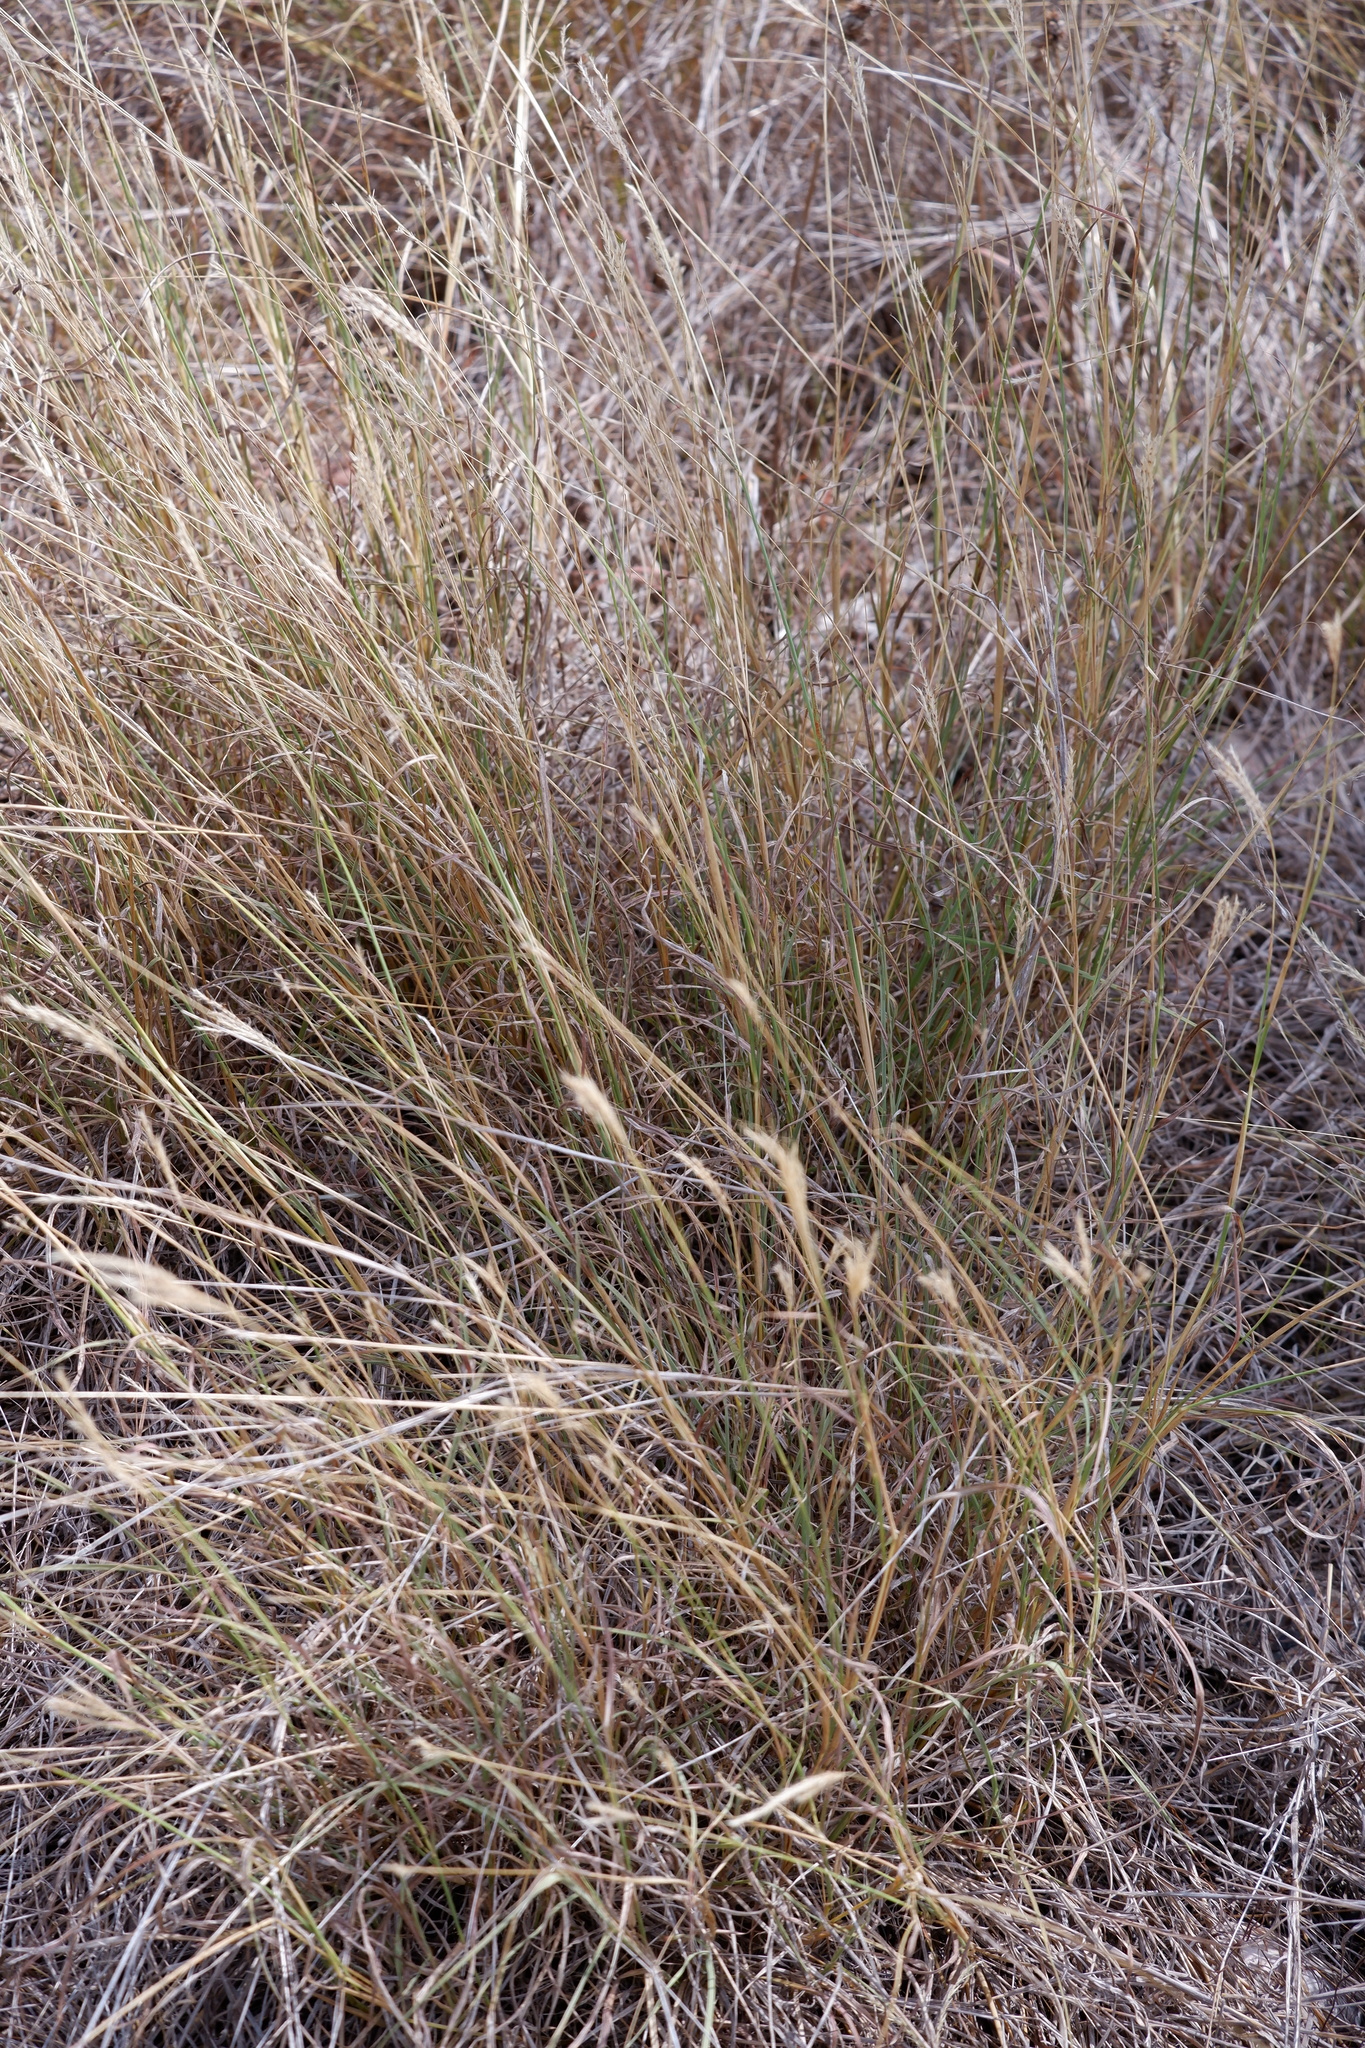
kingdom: Plantae
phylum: Tracheophyta
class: Liliopsida
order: Poales
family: Poaceae
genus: Bothriochloa
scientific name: Bothriochloa ischaemum
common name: Yellow bluestem
